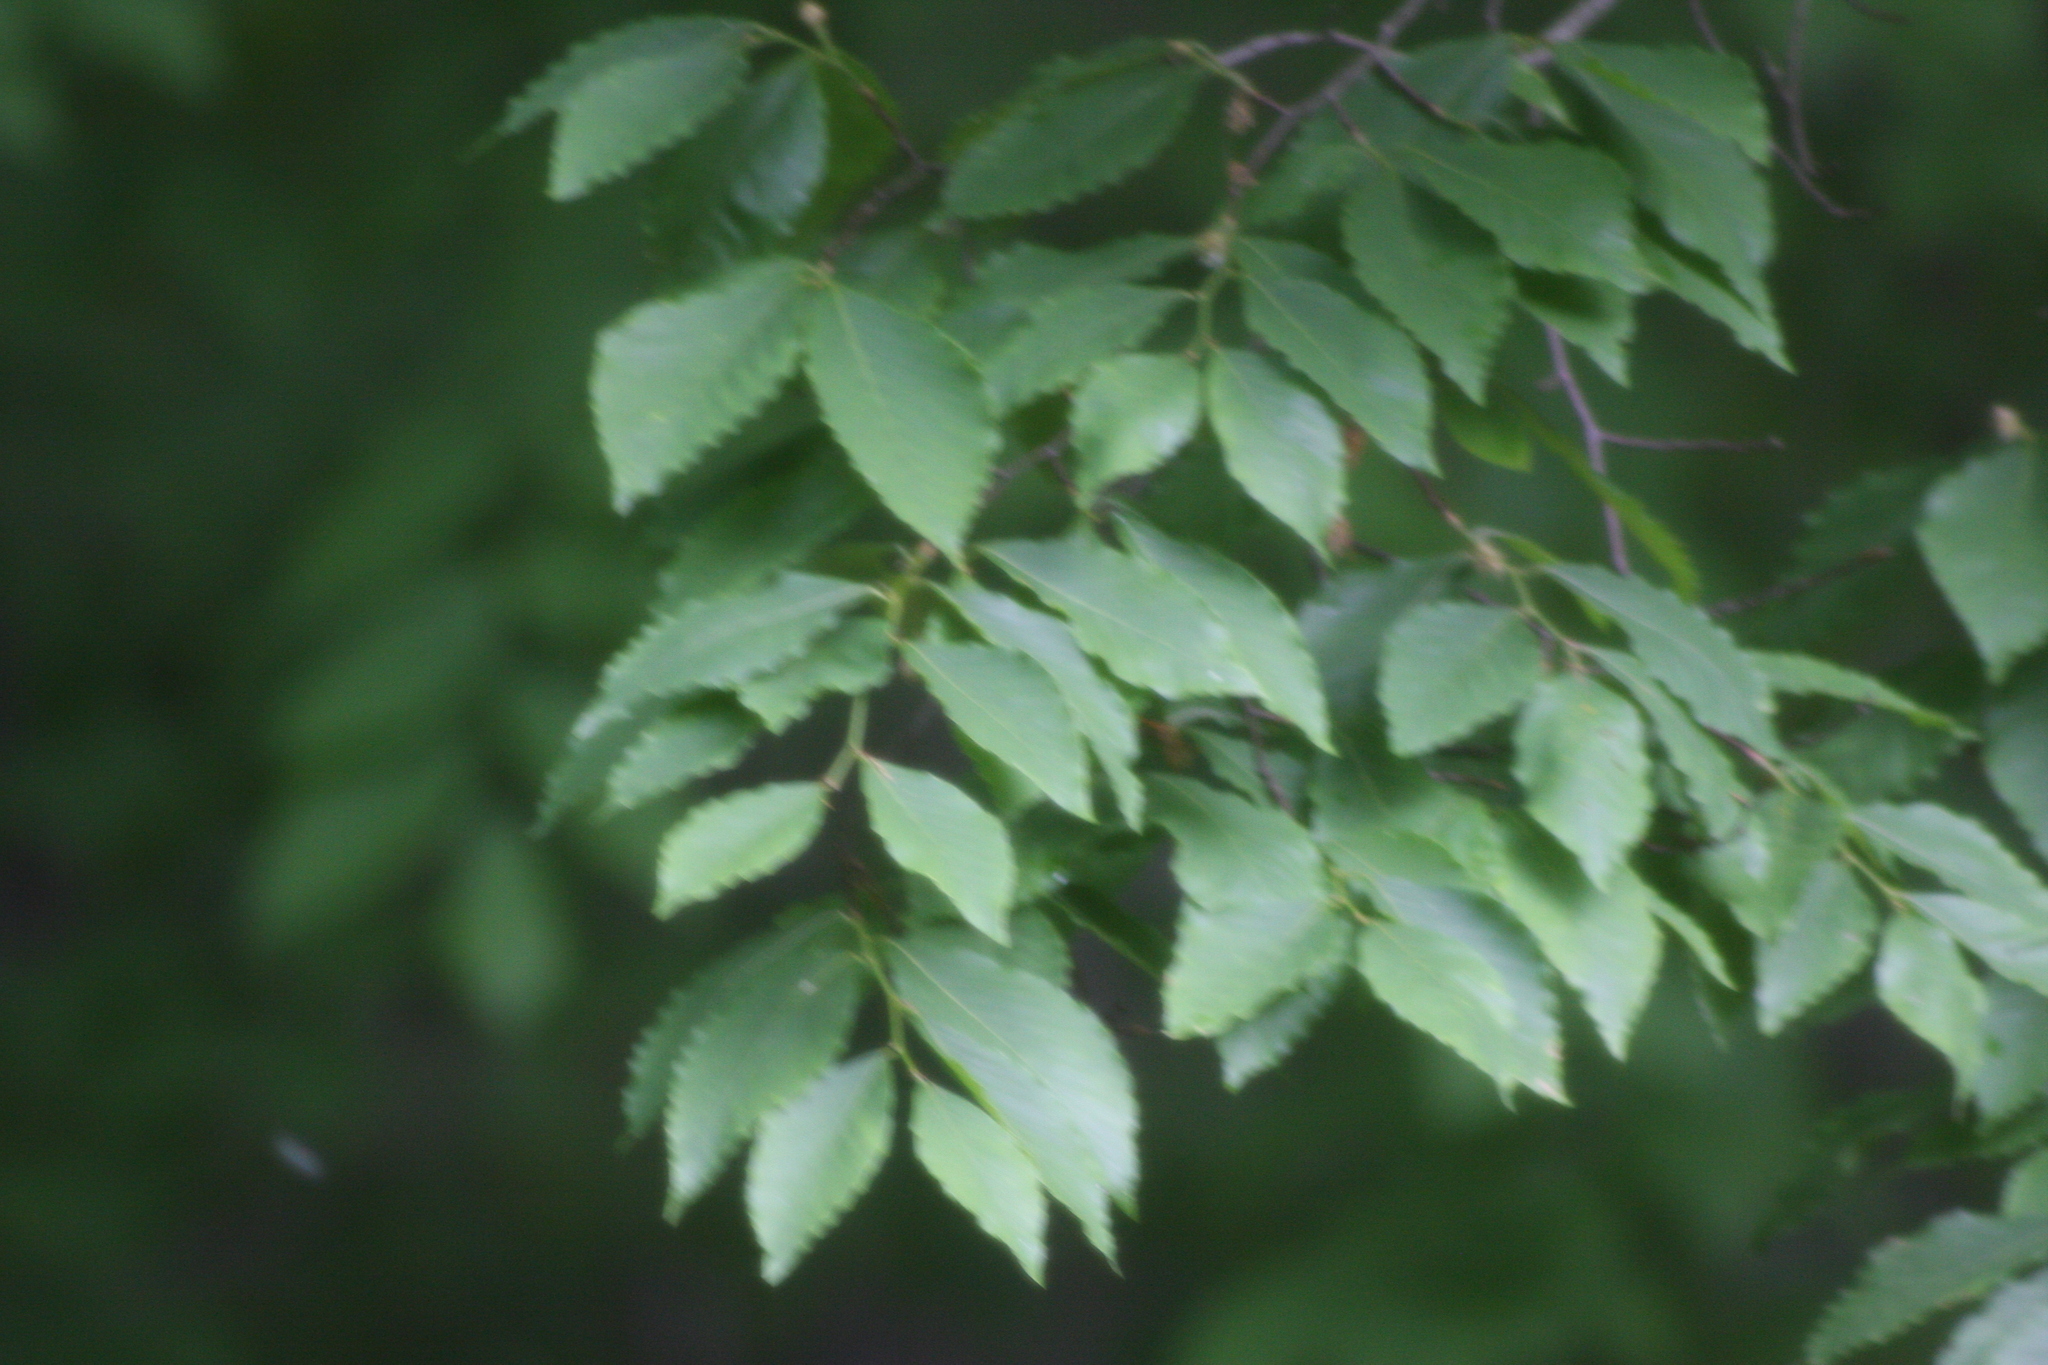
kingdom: Plantae
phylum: Tracheophyta
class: Magnoliopsida
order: Fagales
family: Fagaceae
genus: Fagus
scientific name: Fagus grandifolia
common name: American beech
